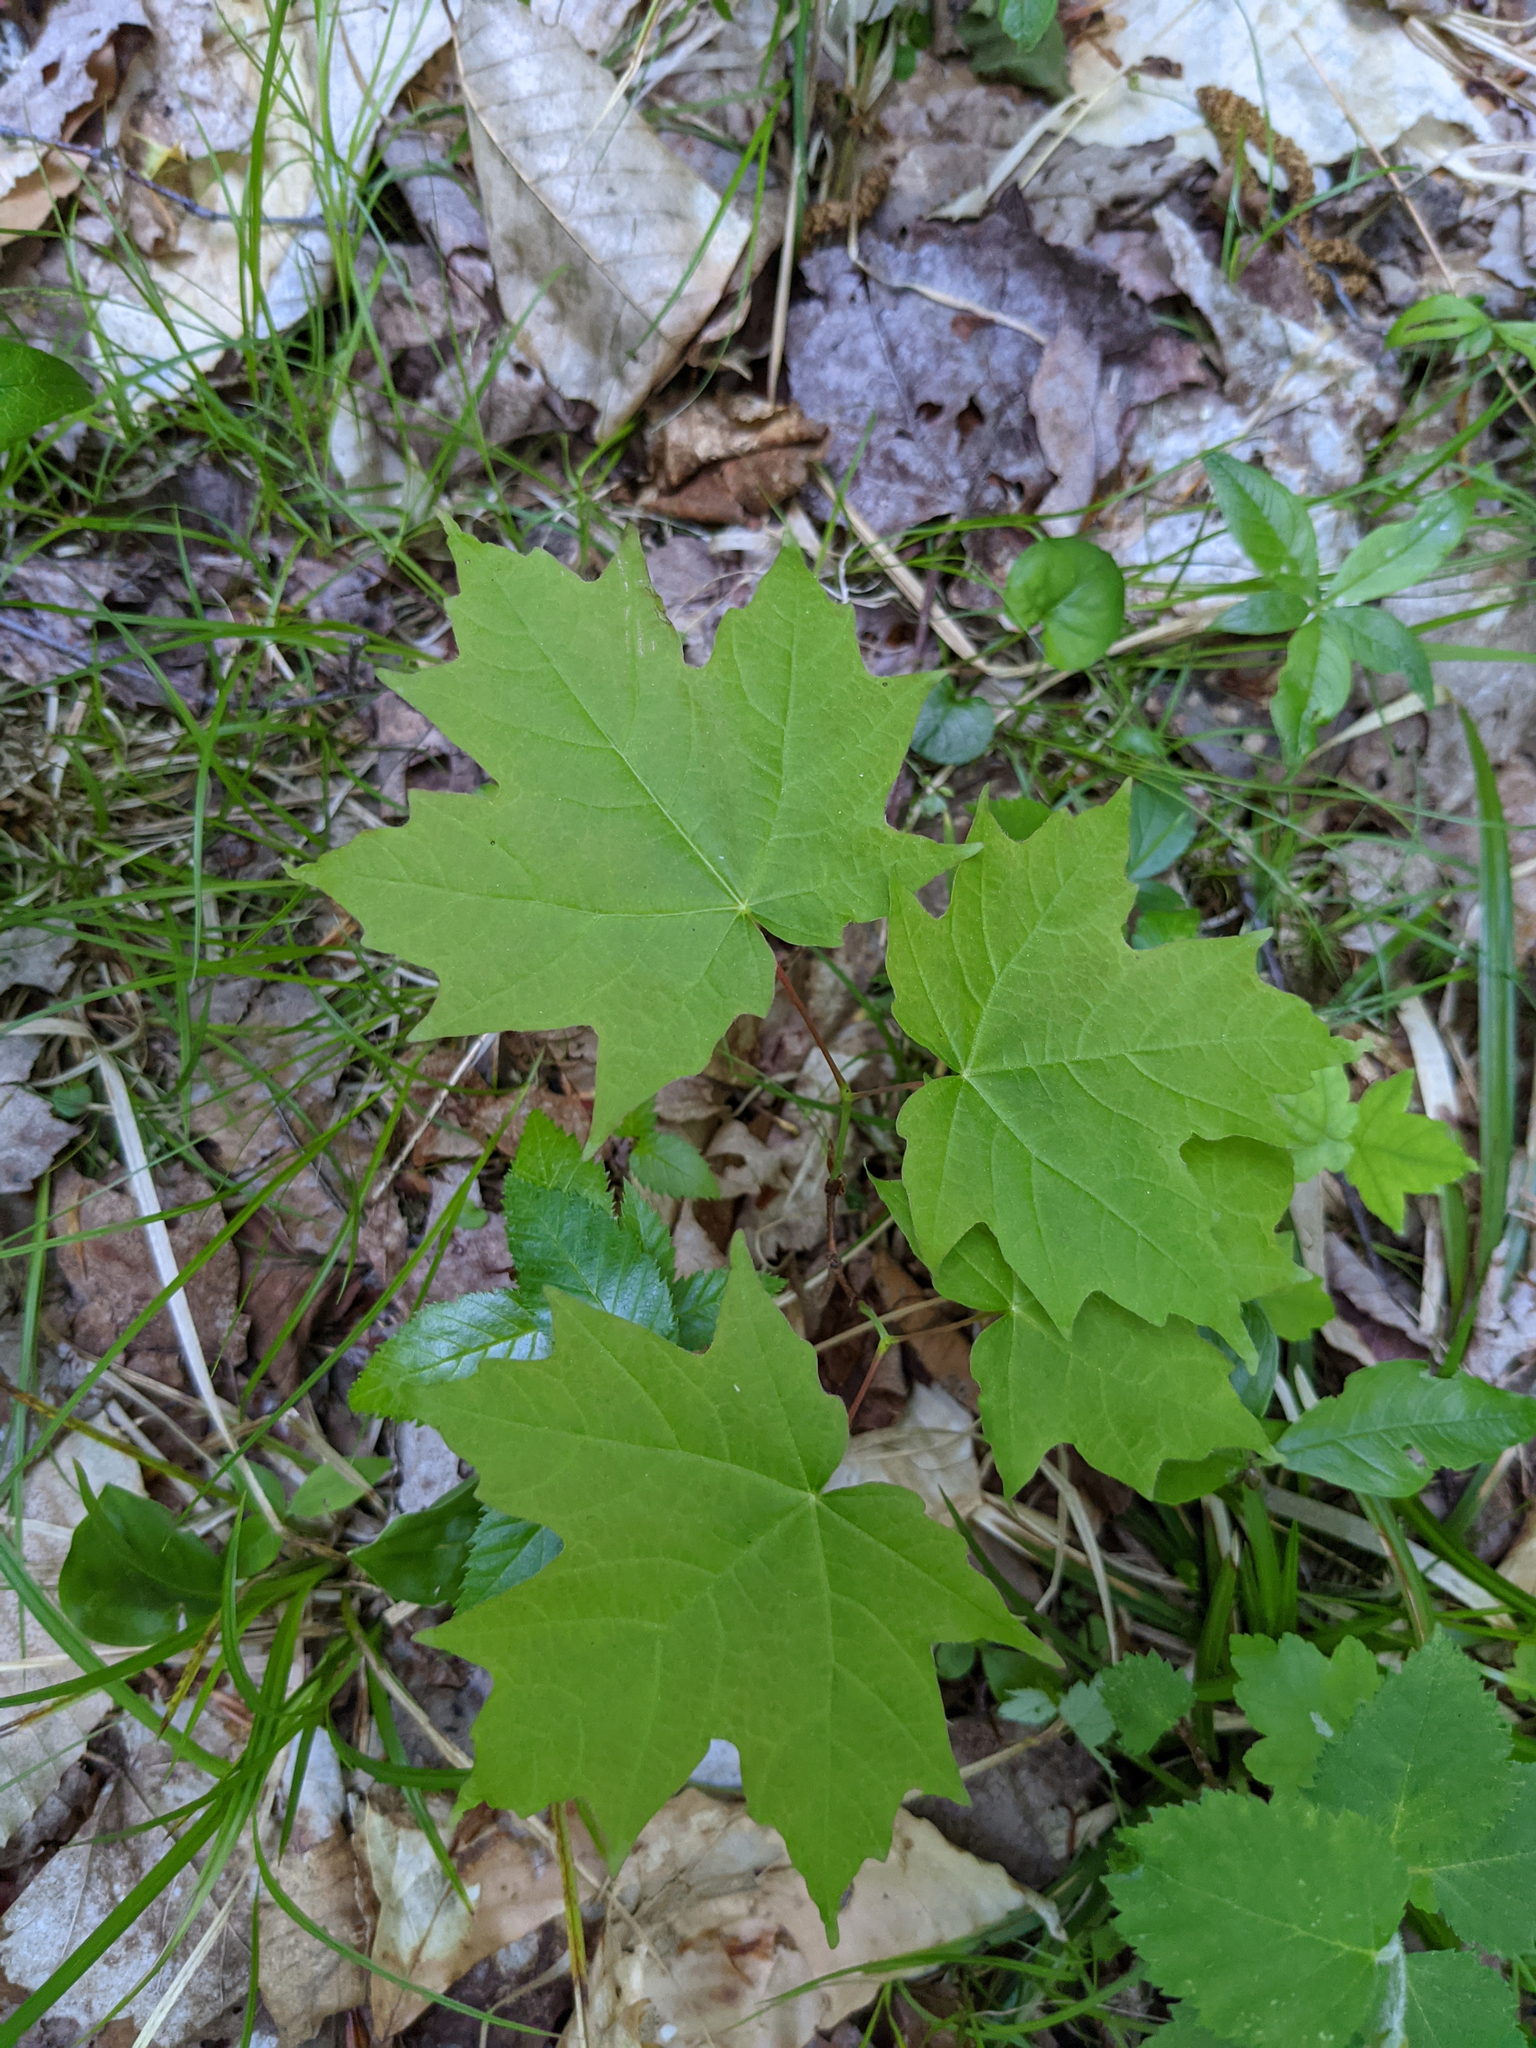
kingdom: Plantae
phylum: Tracheophyta
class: Magnoliopsida
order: Sapindales
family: Sapindaceae
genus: Acer
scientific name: Acer saccharum
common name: Sugar maple
